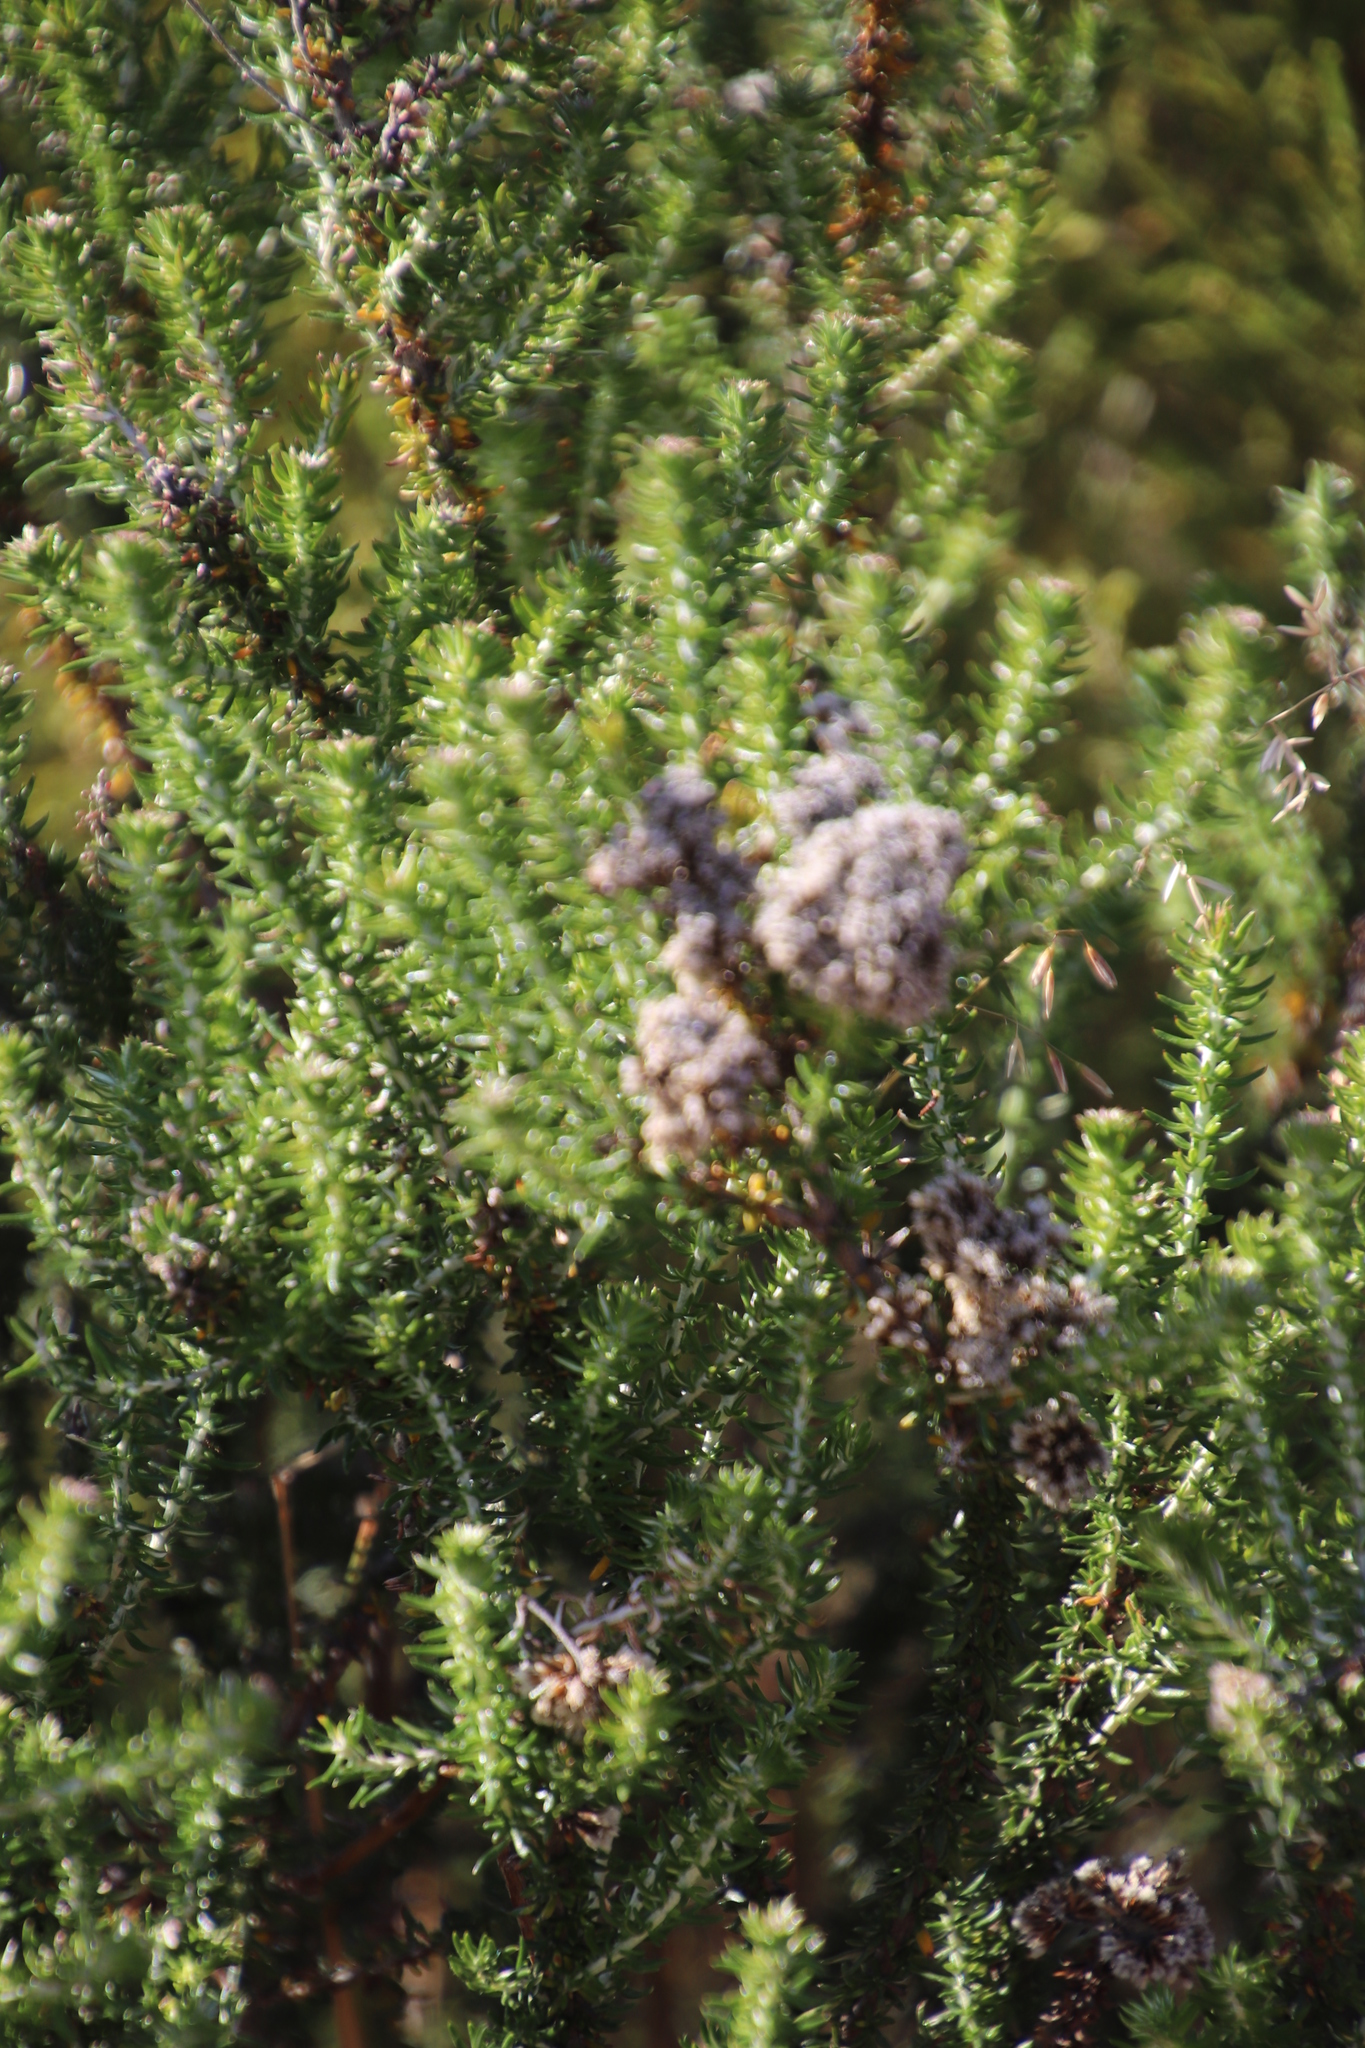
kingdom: Plantae
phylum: Tracheophyta
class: Magnoliopsida
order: Asterales
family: Asteraceae
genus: Metalasia
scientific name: Metalasia densa
